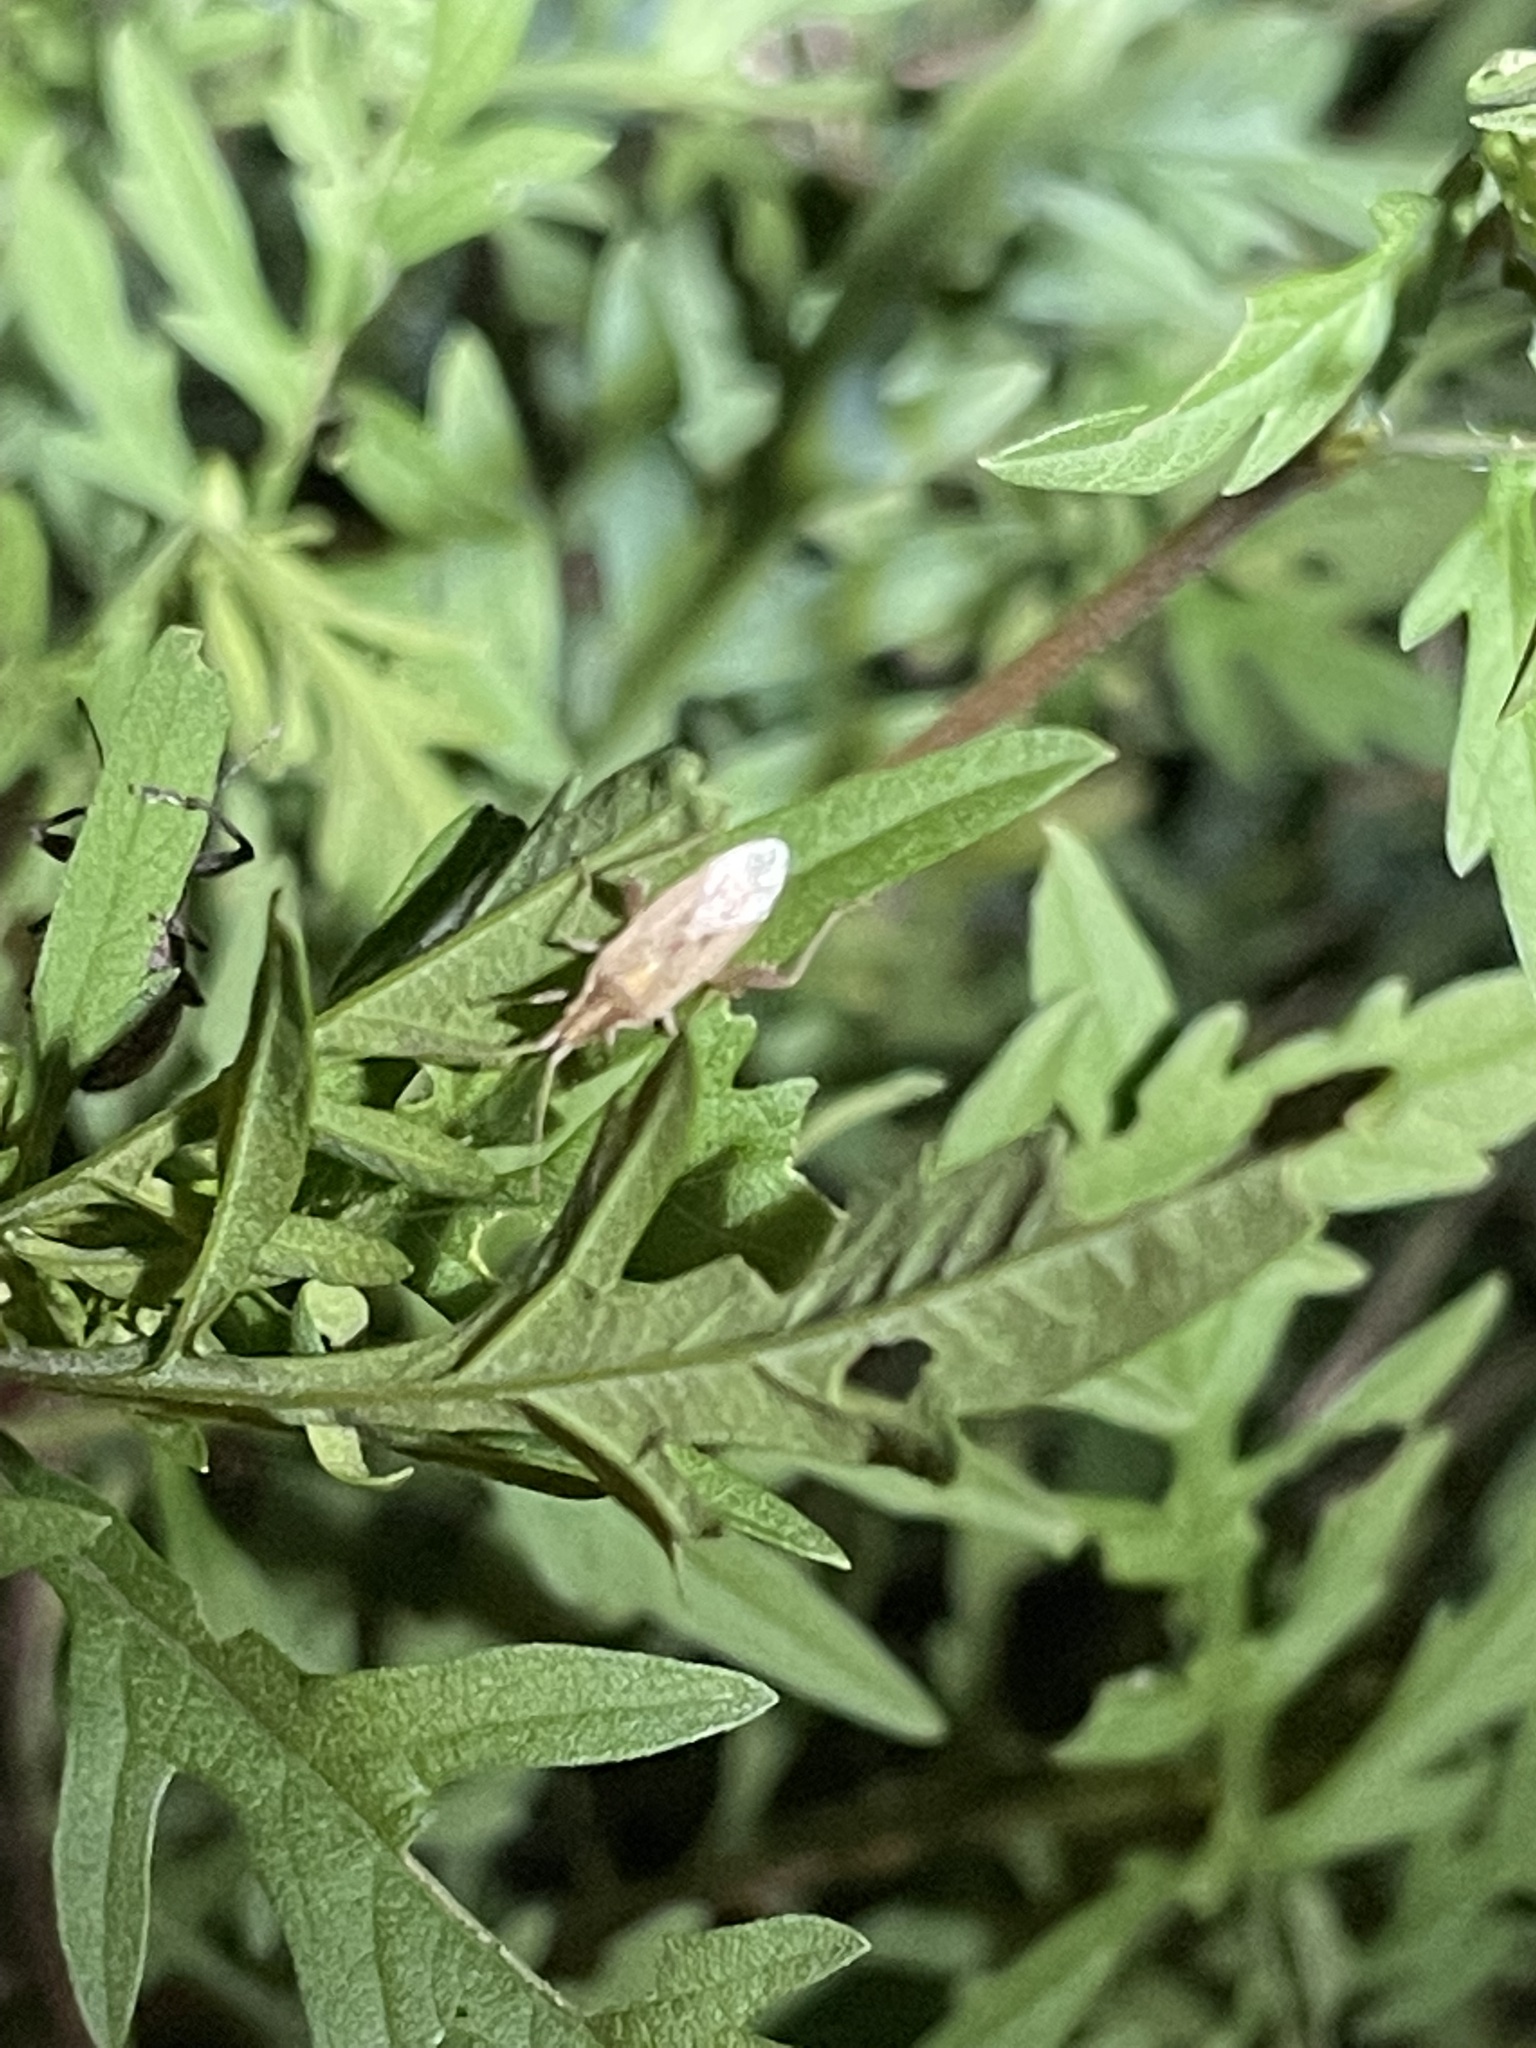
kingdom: Animalia
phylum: Arthropoda
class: Insecta
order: Hemiptera
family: Rhopalidae
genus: Harmostes
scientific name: Harmostes reflexulus
